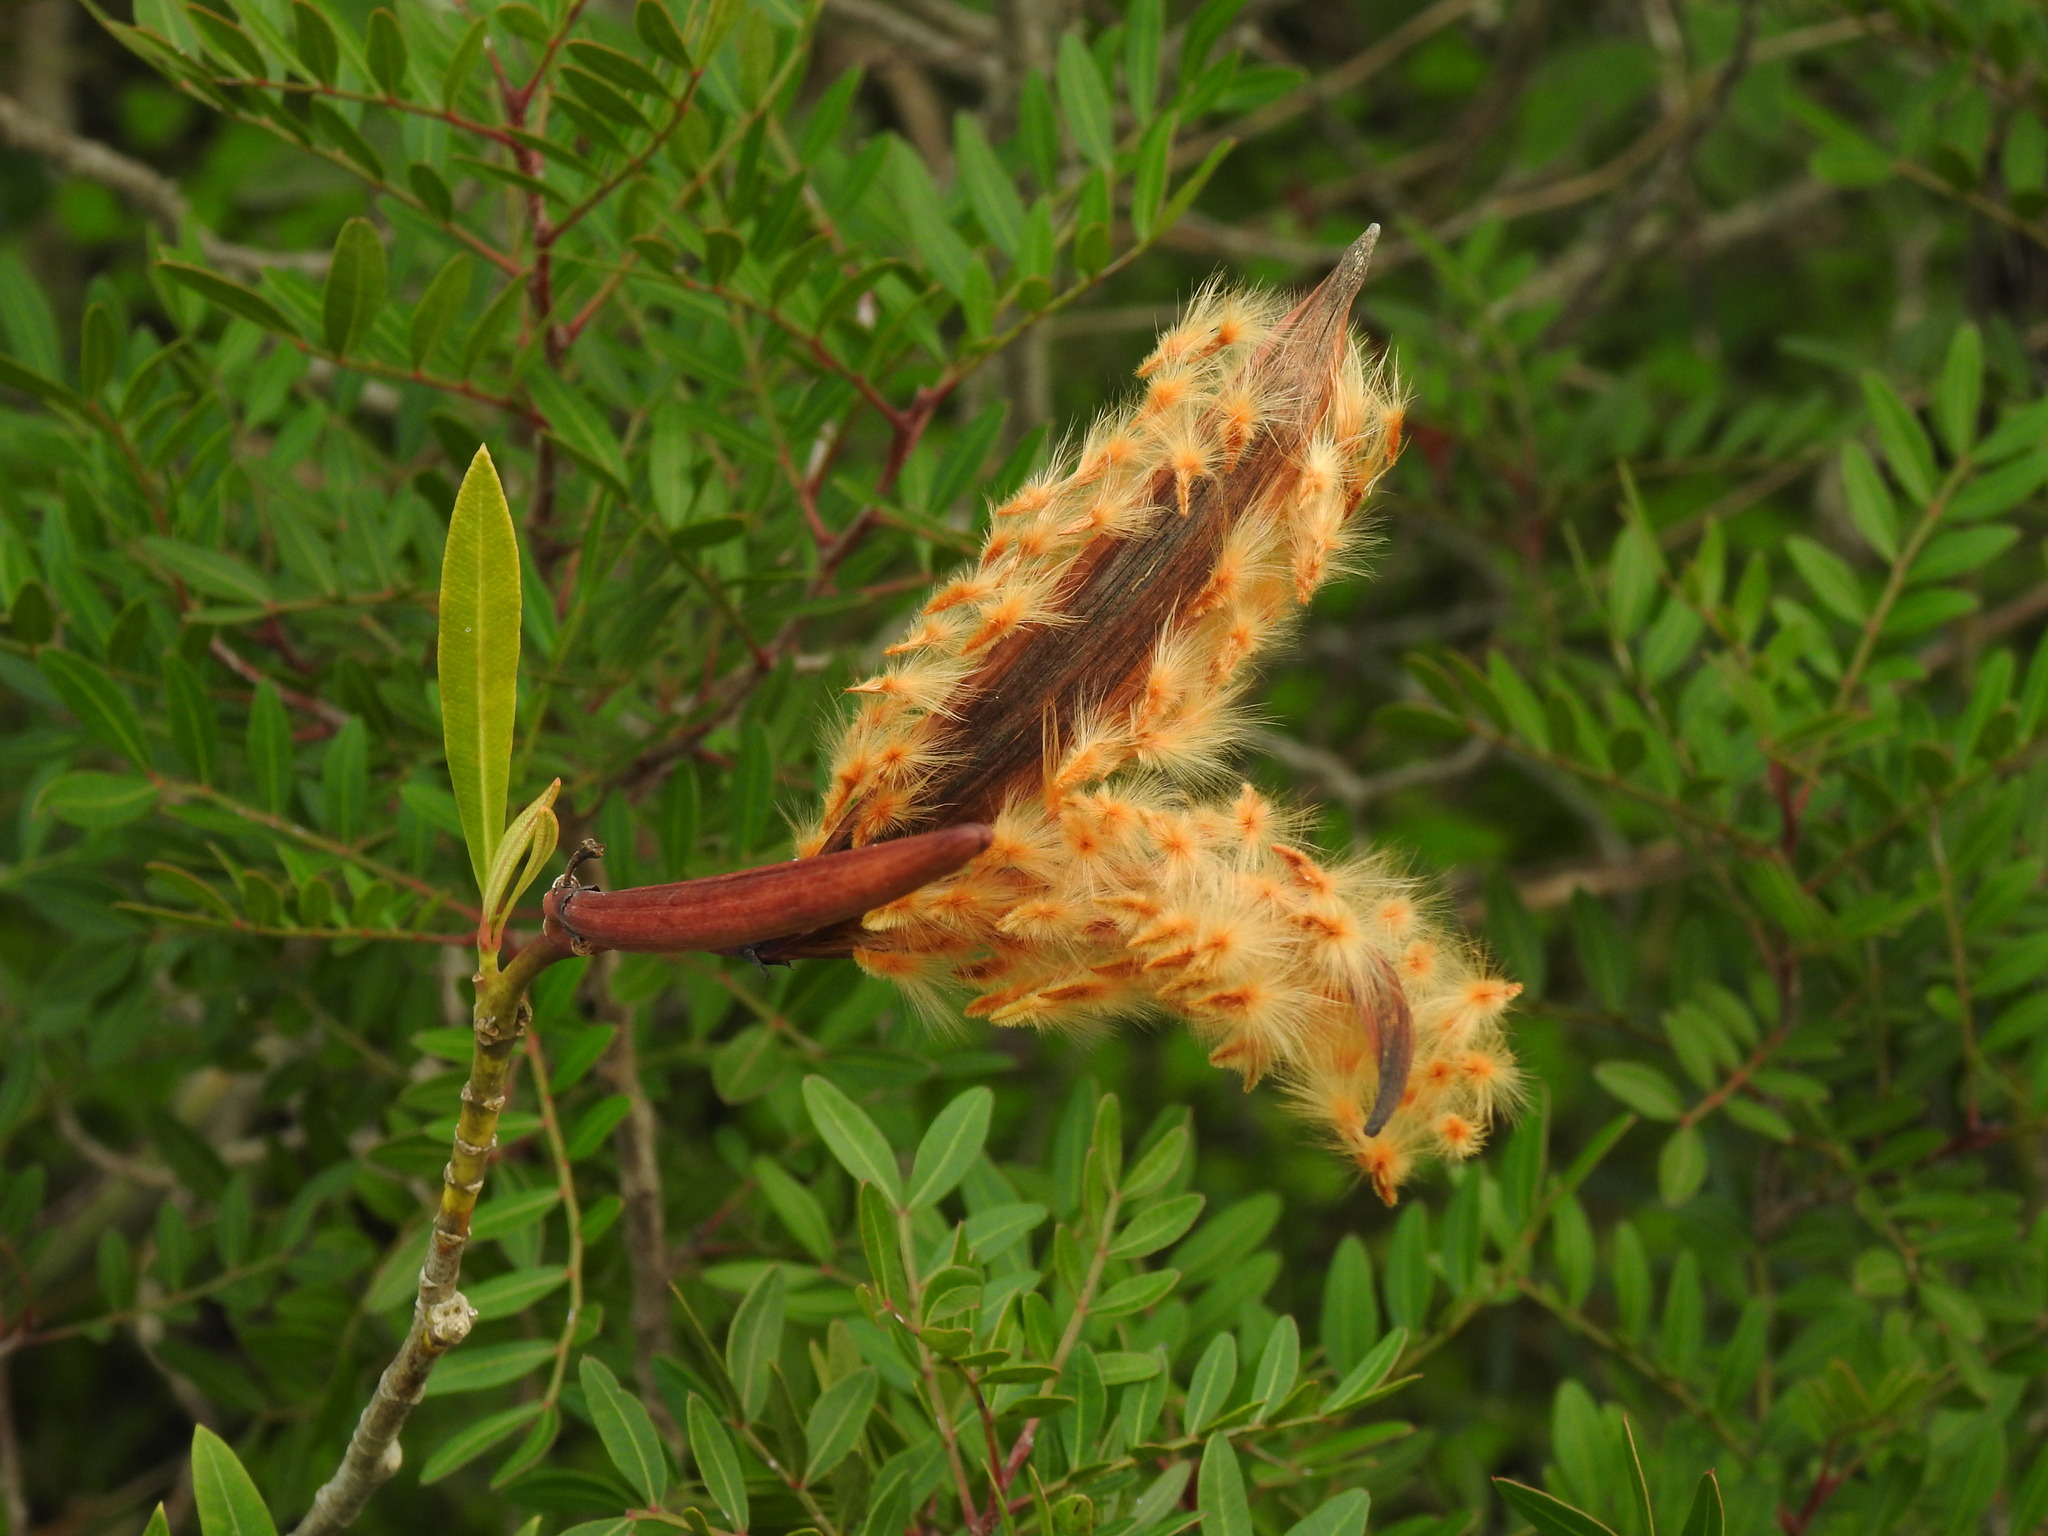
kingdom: Plantae
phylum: Tracheophyta
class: Magnoliopsida
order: Gentianales
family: Apocynaceae
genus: Nerium
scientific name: Nerium oleander
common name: Oleander
